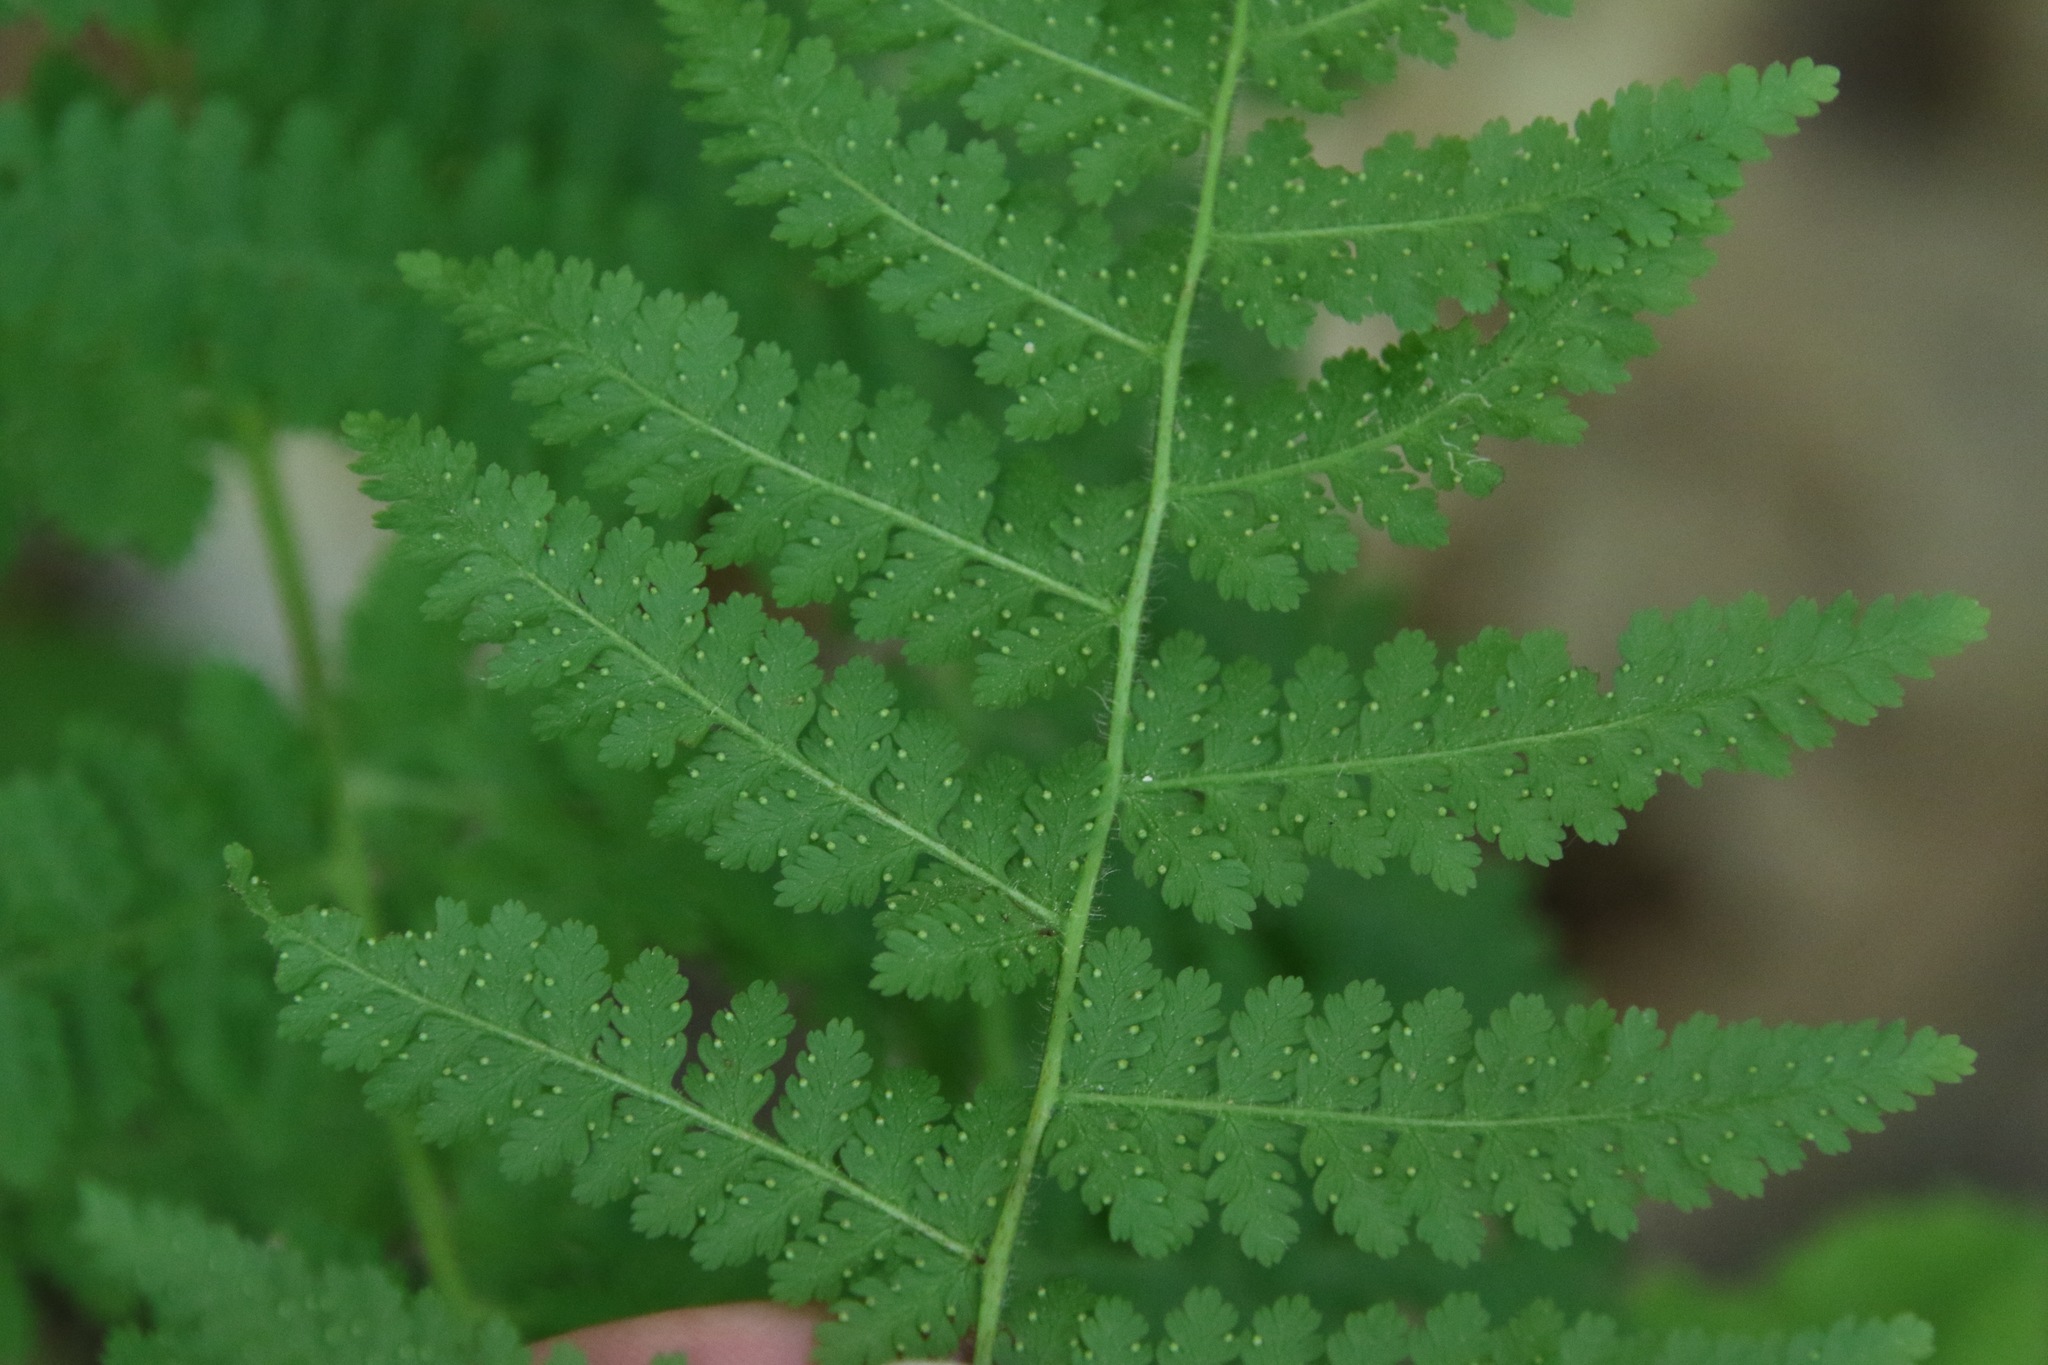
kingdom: Plantae
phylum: Tracheophyta
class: Polypodiopsida
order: Polypodiales
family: Dennstaedtiaceae
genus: Sitobolium
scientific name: Sitobolium punctilobum
